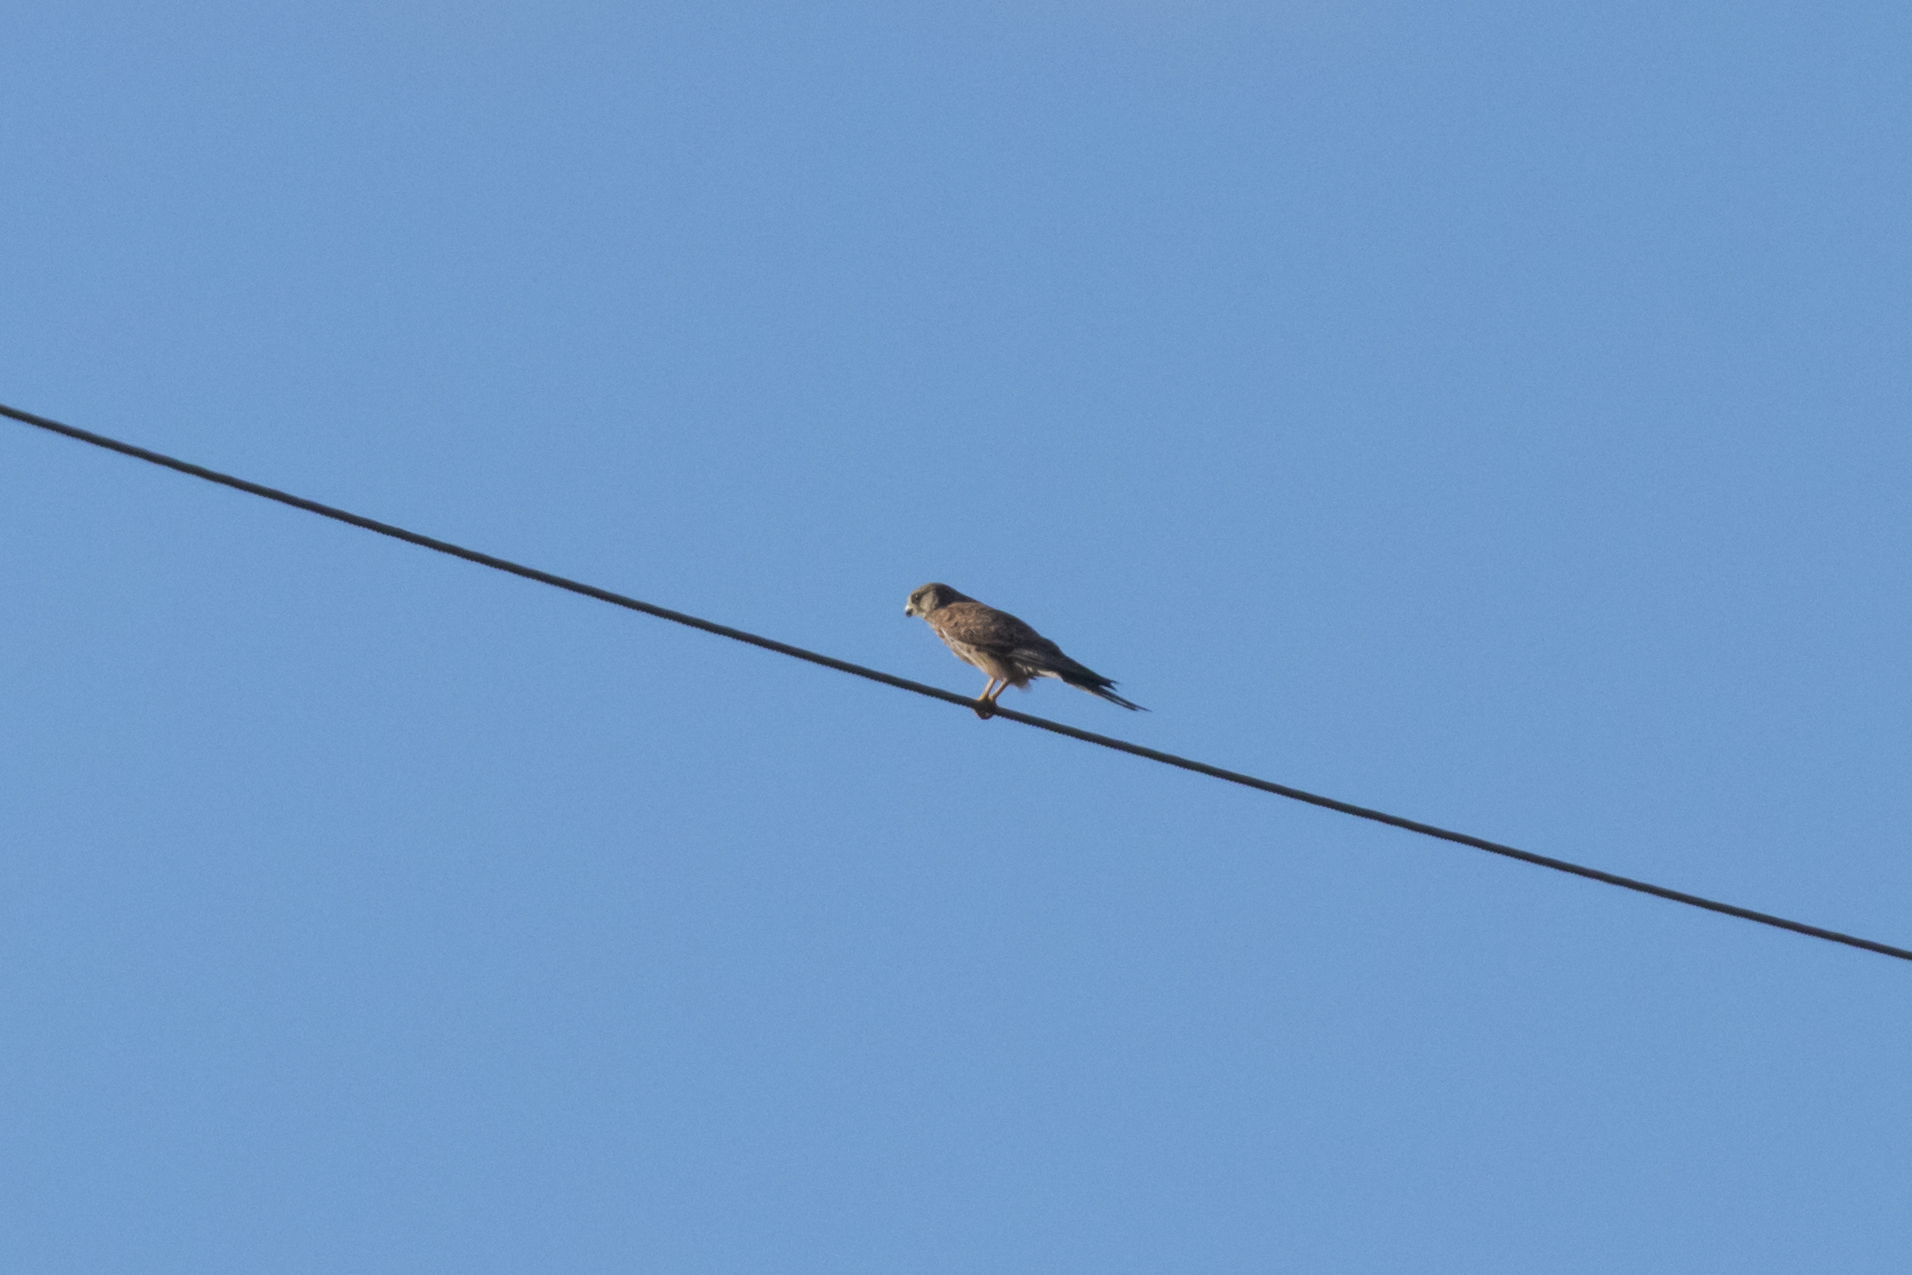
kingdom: Animalia
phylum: Chordata
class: Aves
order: Falconiformes
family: Falconidae
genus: Falco
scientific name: Falco tinnunculus
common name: Common kestrel
